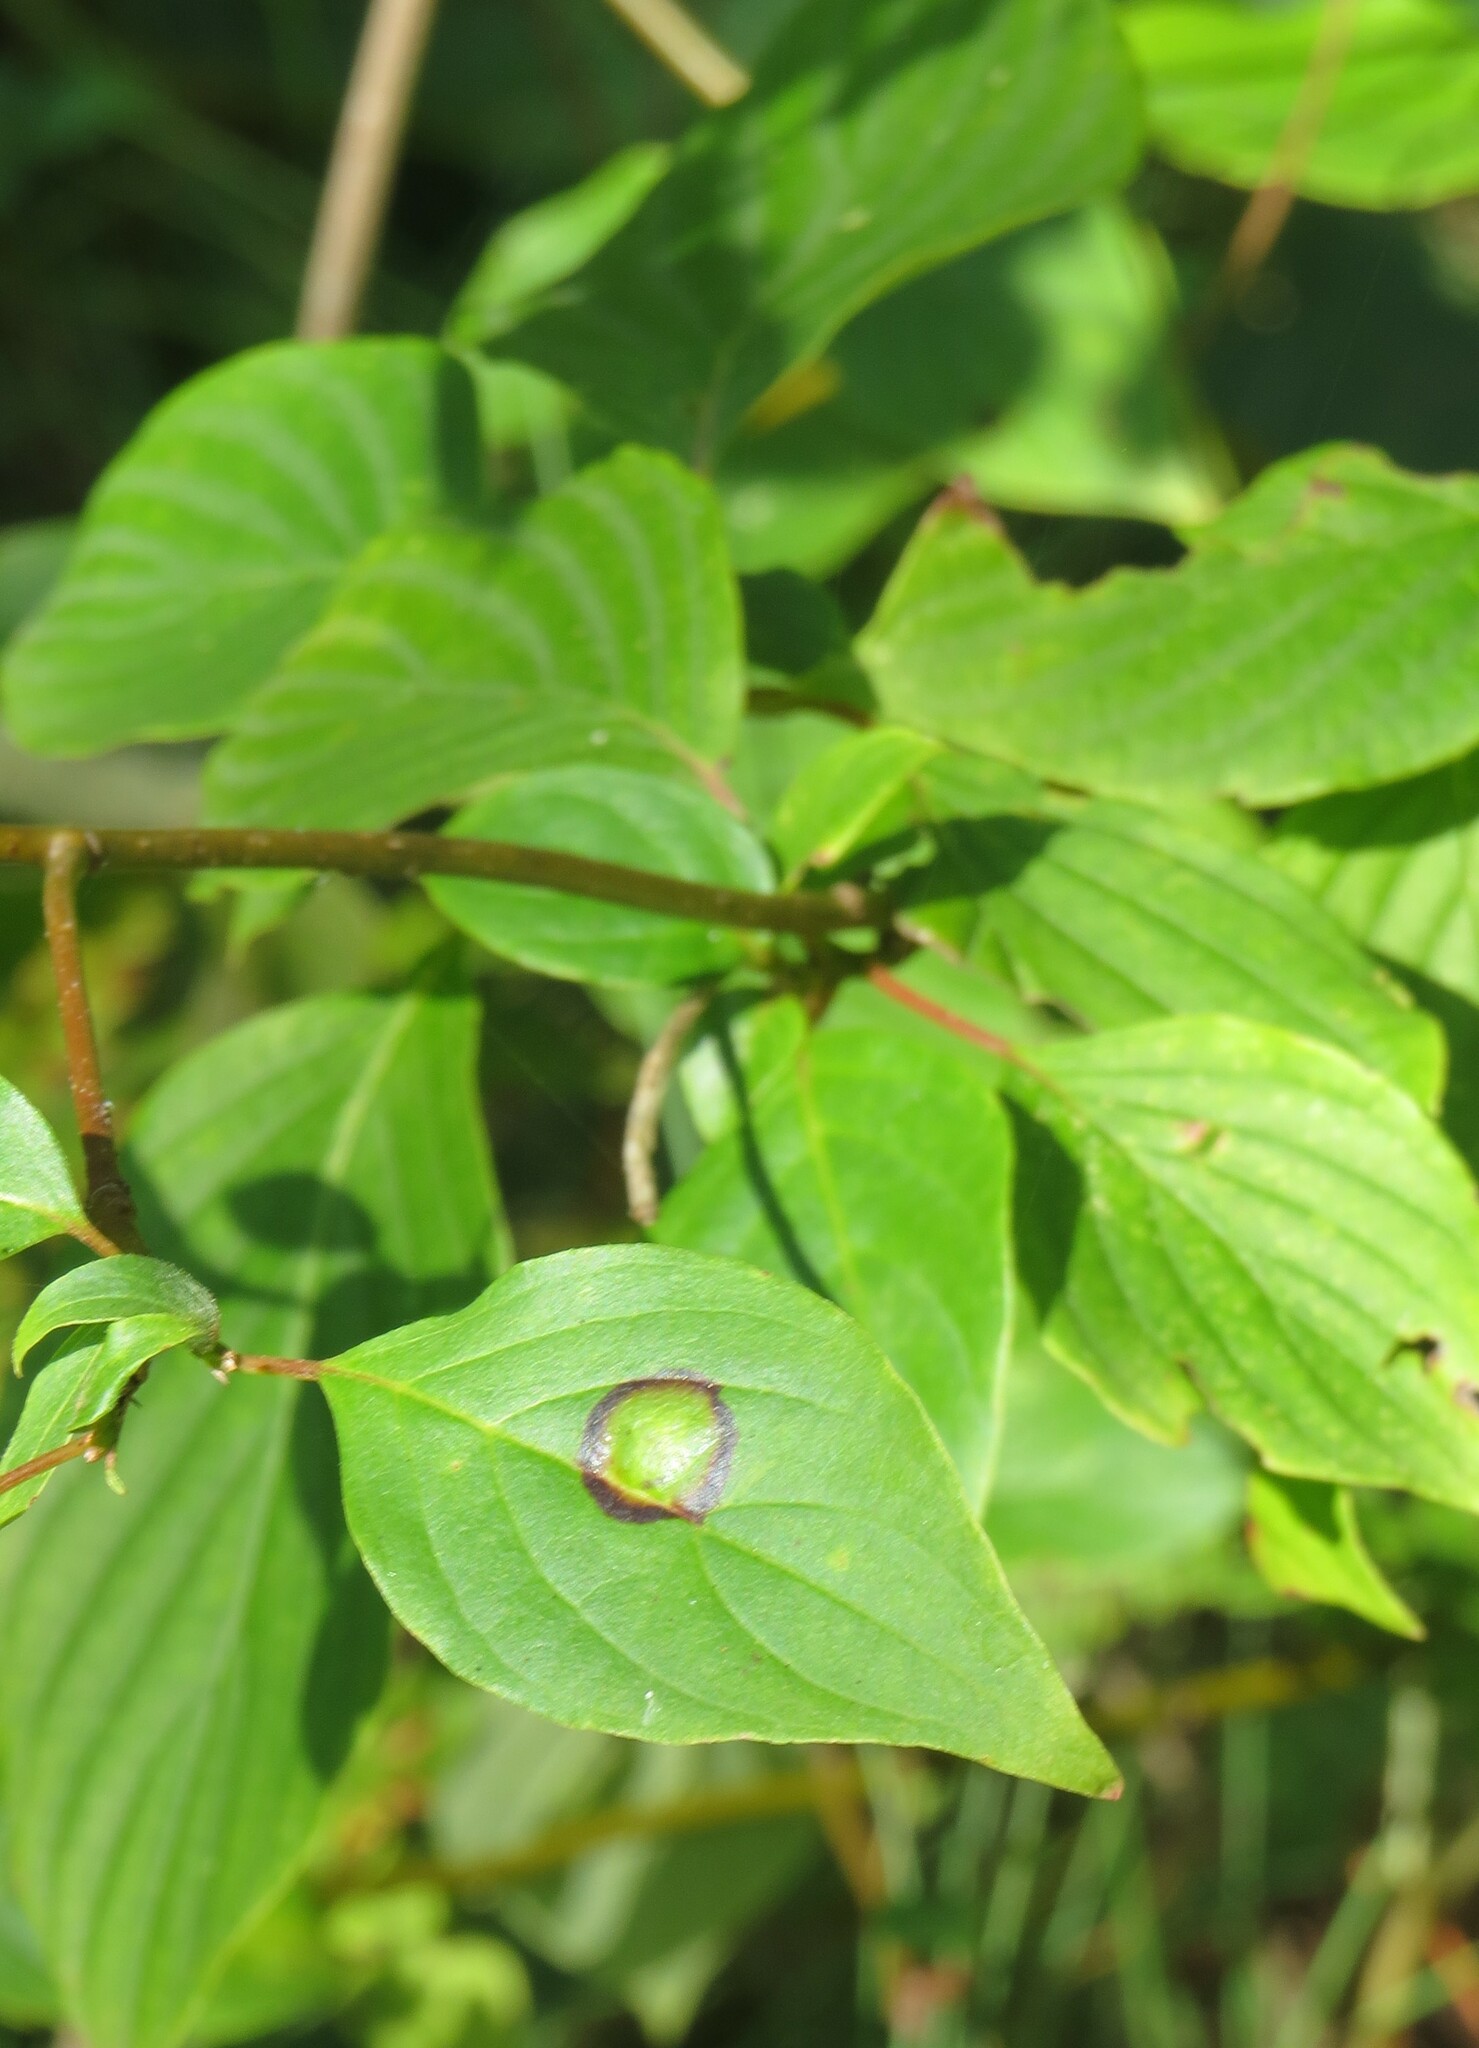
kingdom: Animalia
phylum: Arthropoda
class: Insecta
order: Diptera
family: Cecidomyiidae
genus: Parallelodiplosis
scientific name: Parallelodiplosis subtruncata
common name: Dogwood eyespot gall midge
